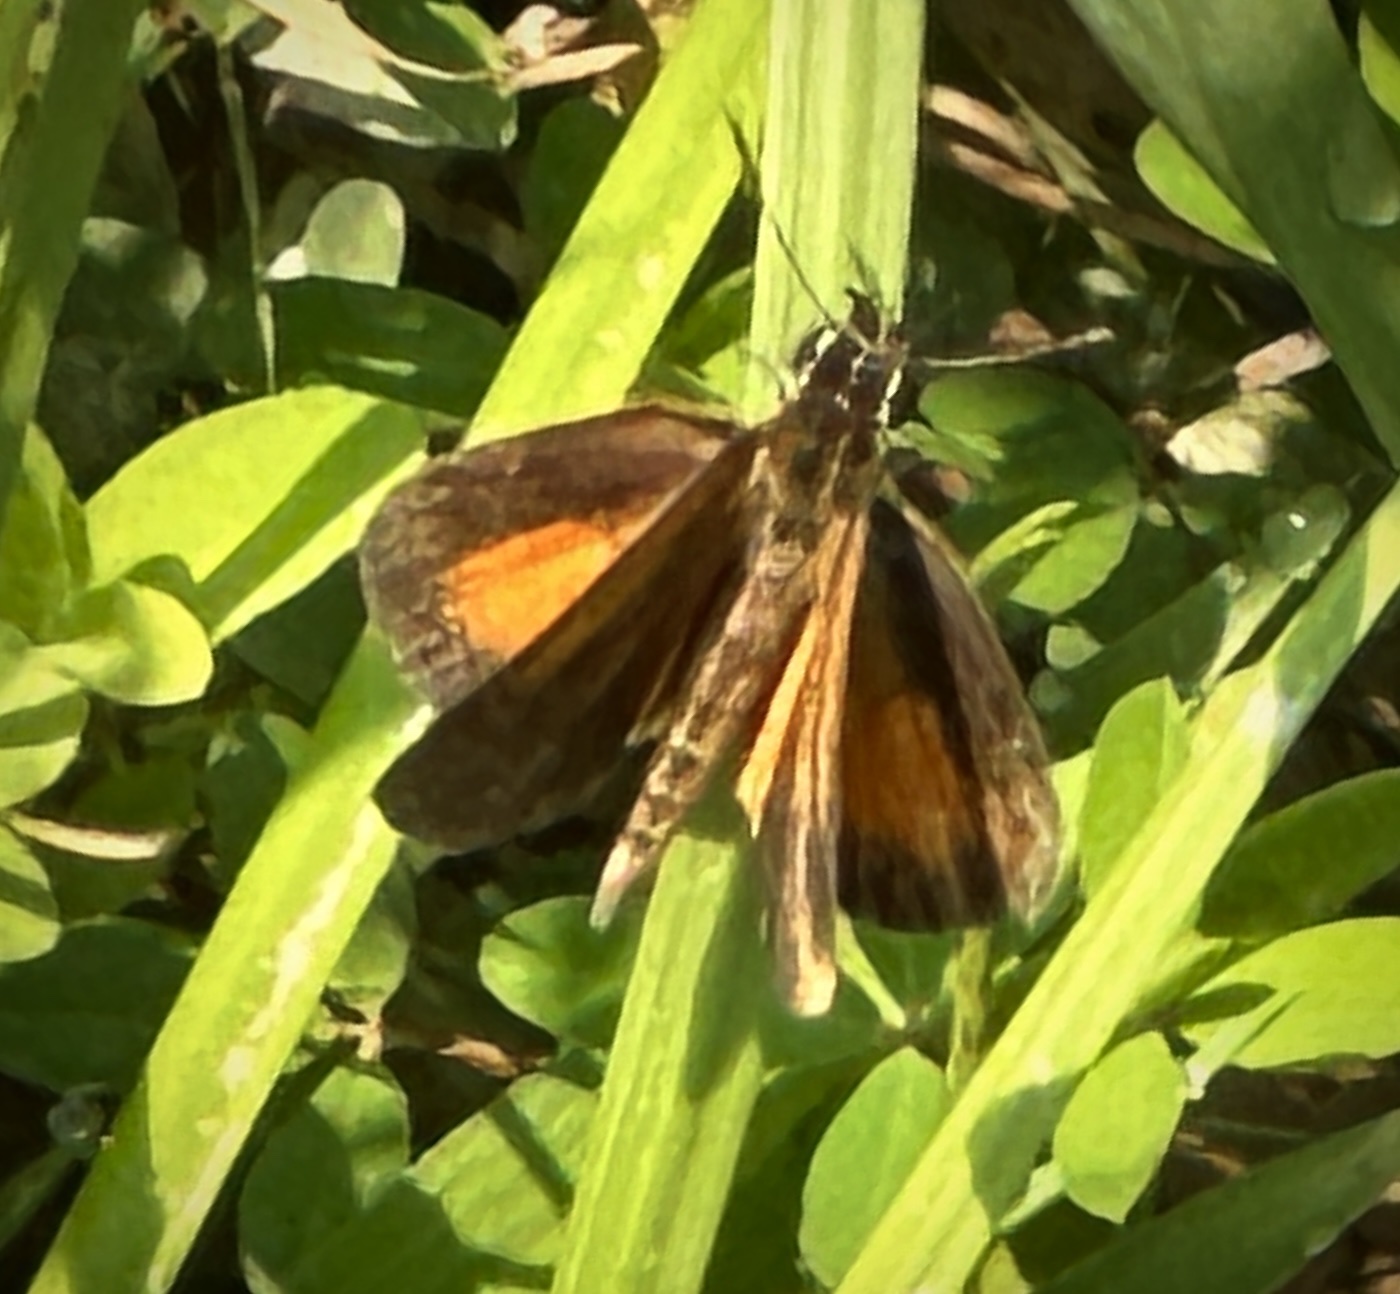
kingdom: Animalia
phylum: Arthropoda
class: Insecta
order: Lepidoptera
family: Hesperiidae
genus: Ancyloxypha
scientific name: Ancyloxypha numitor
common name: Least skipper
